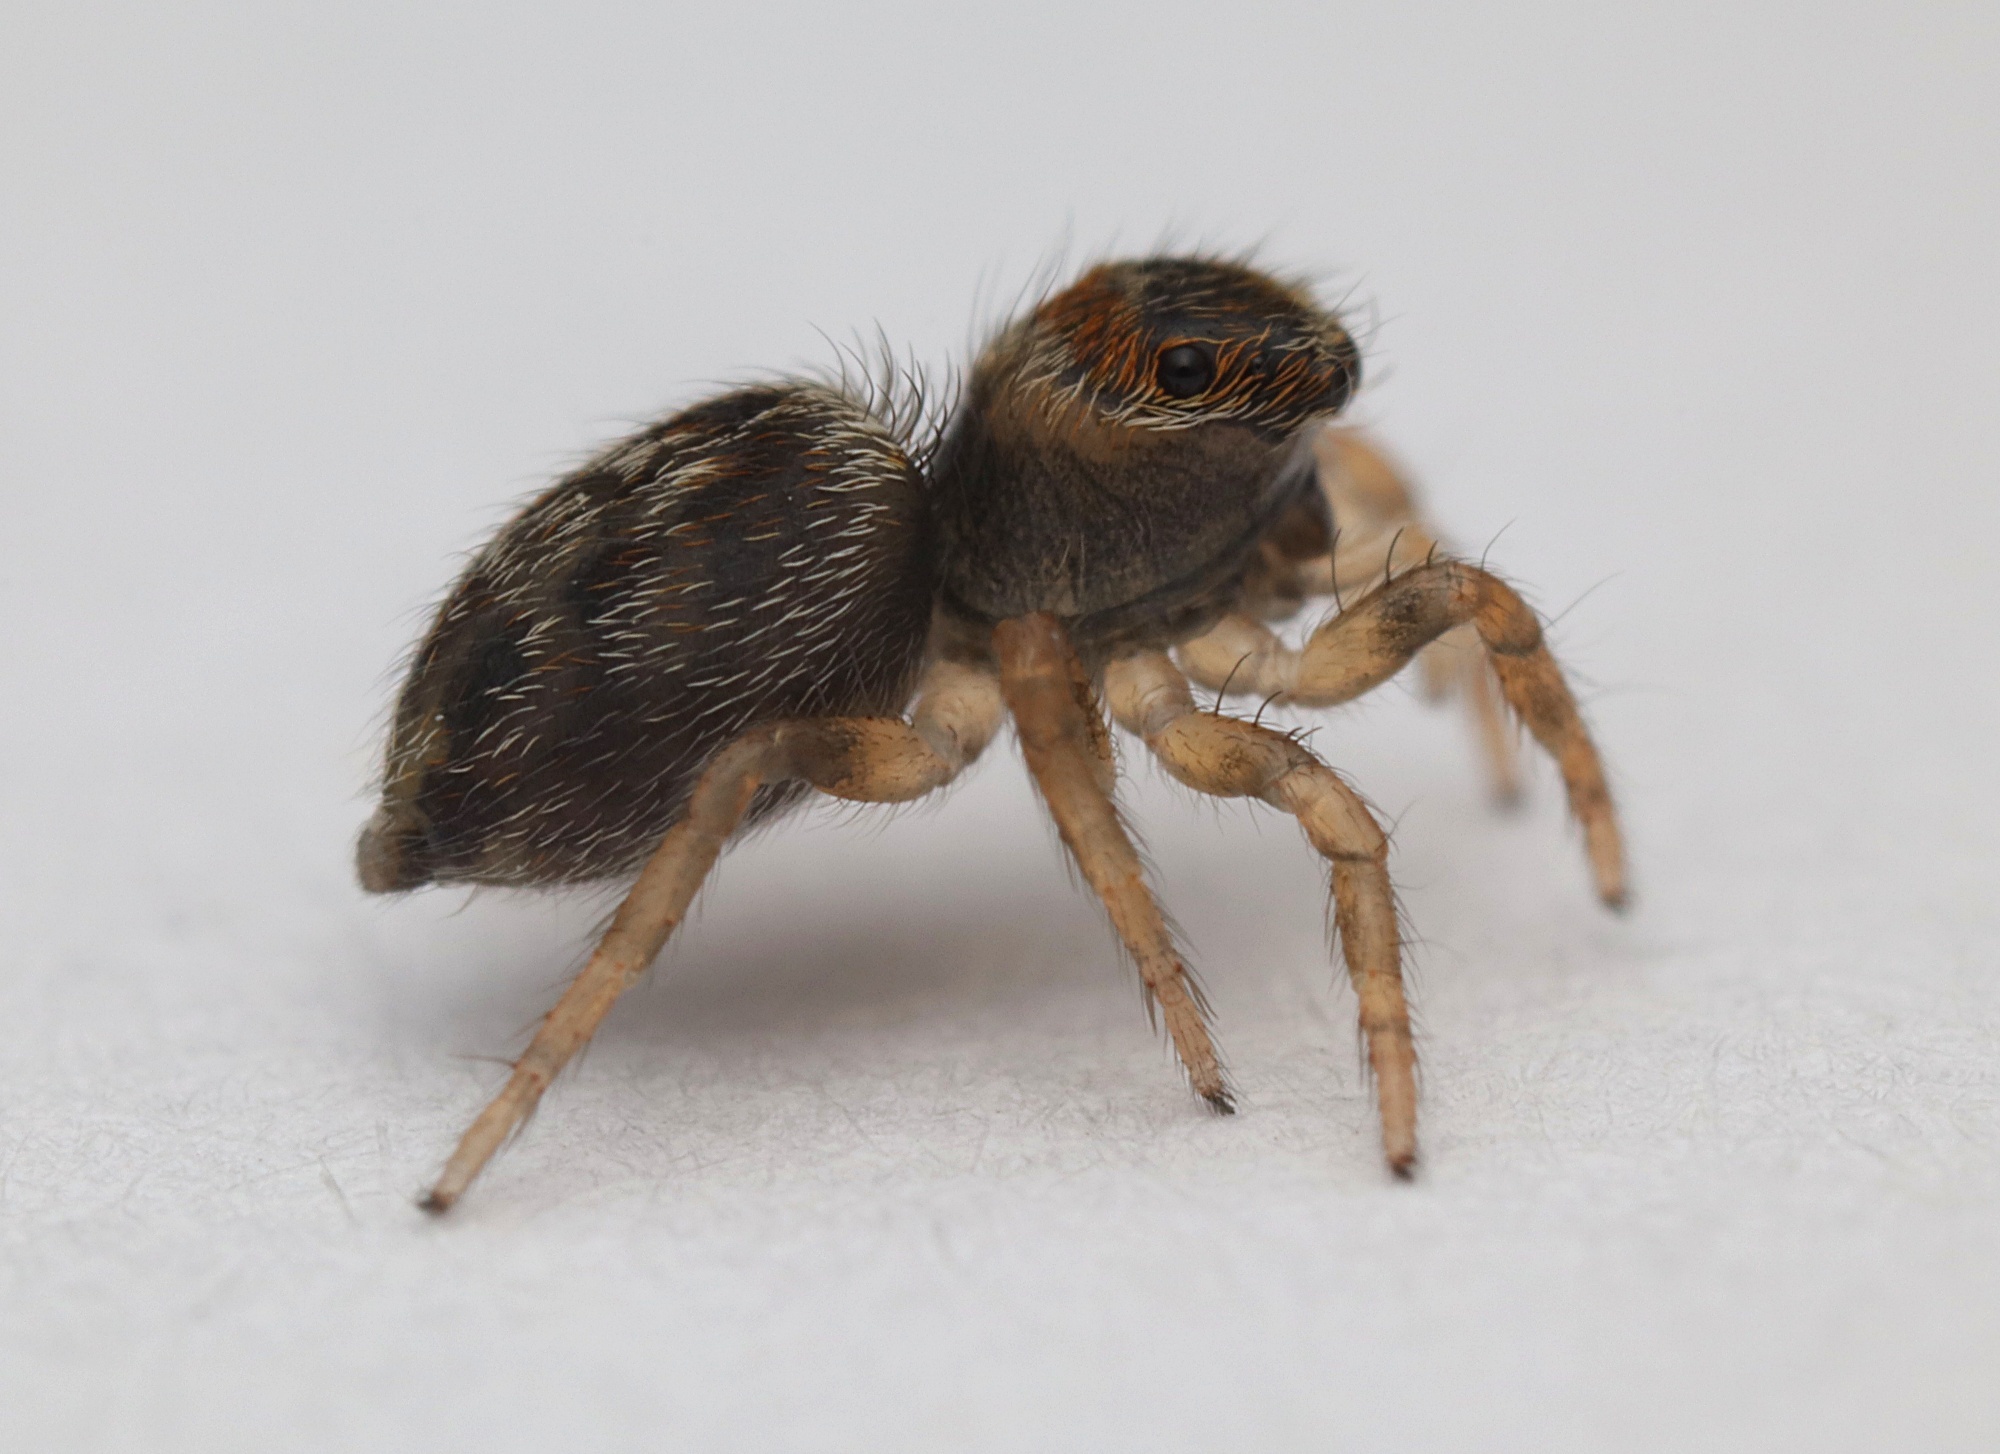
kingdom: Animalia
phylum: Arthropoda
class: Arachnida
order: Araneae
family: Salticidae
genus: Maratus
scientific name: Maratus griseus
